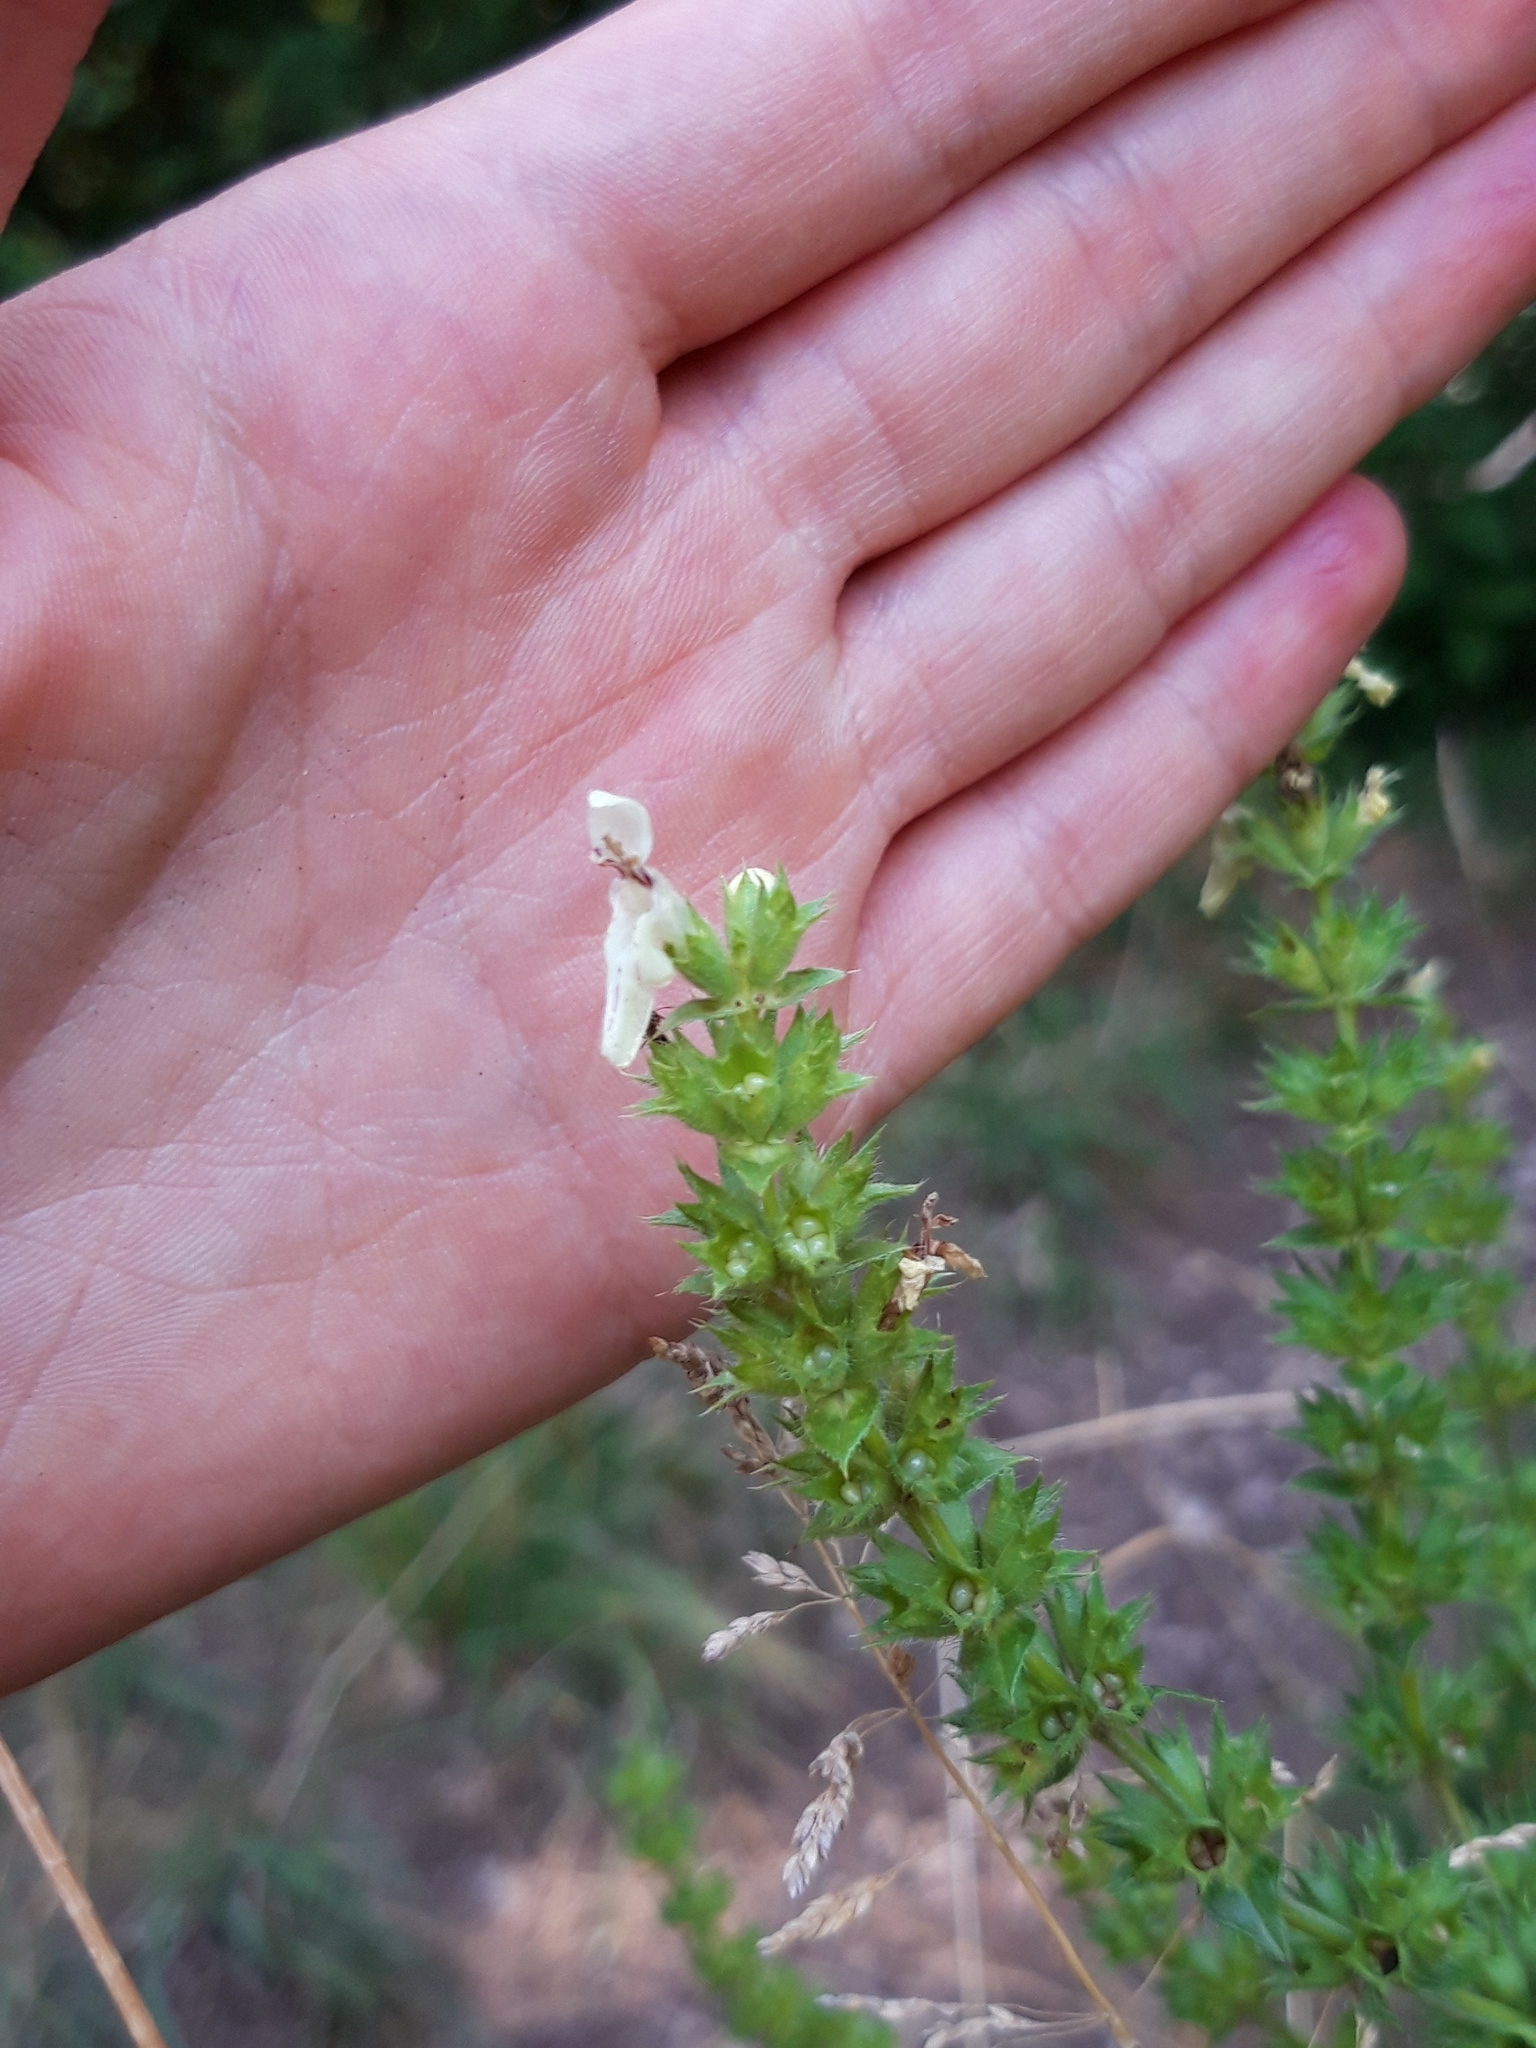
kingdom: Plantae
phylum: Tracheophyta
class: Magnoliopsida
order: Lamiales
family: Lamiaceae
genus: Stachys
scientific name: Stachys recta
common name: Perennial yellow-woundwort
